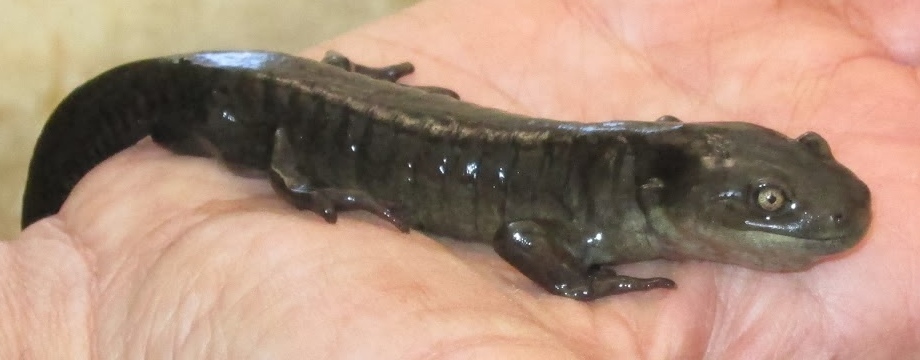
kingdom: Animalia
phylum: Chordata
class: Amphibia
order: Caudata
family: Ambystomatidae
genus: Ambystoma
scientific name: Ambystoma mavortium
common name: Western tiger salamander
